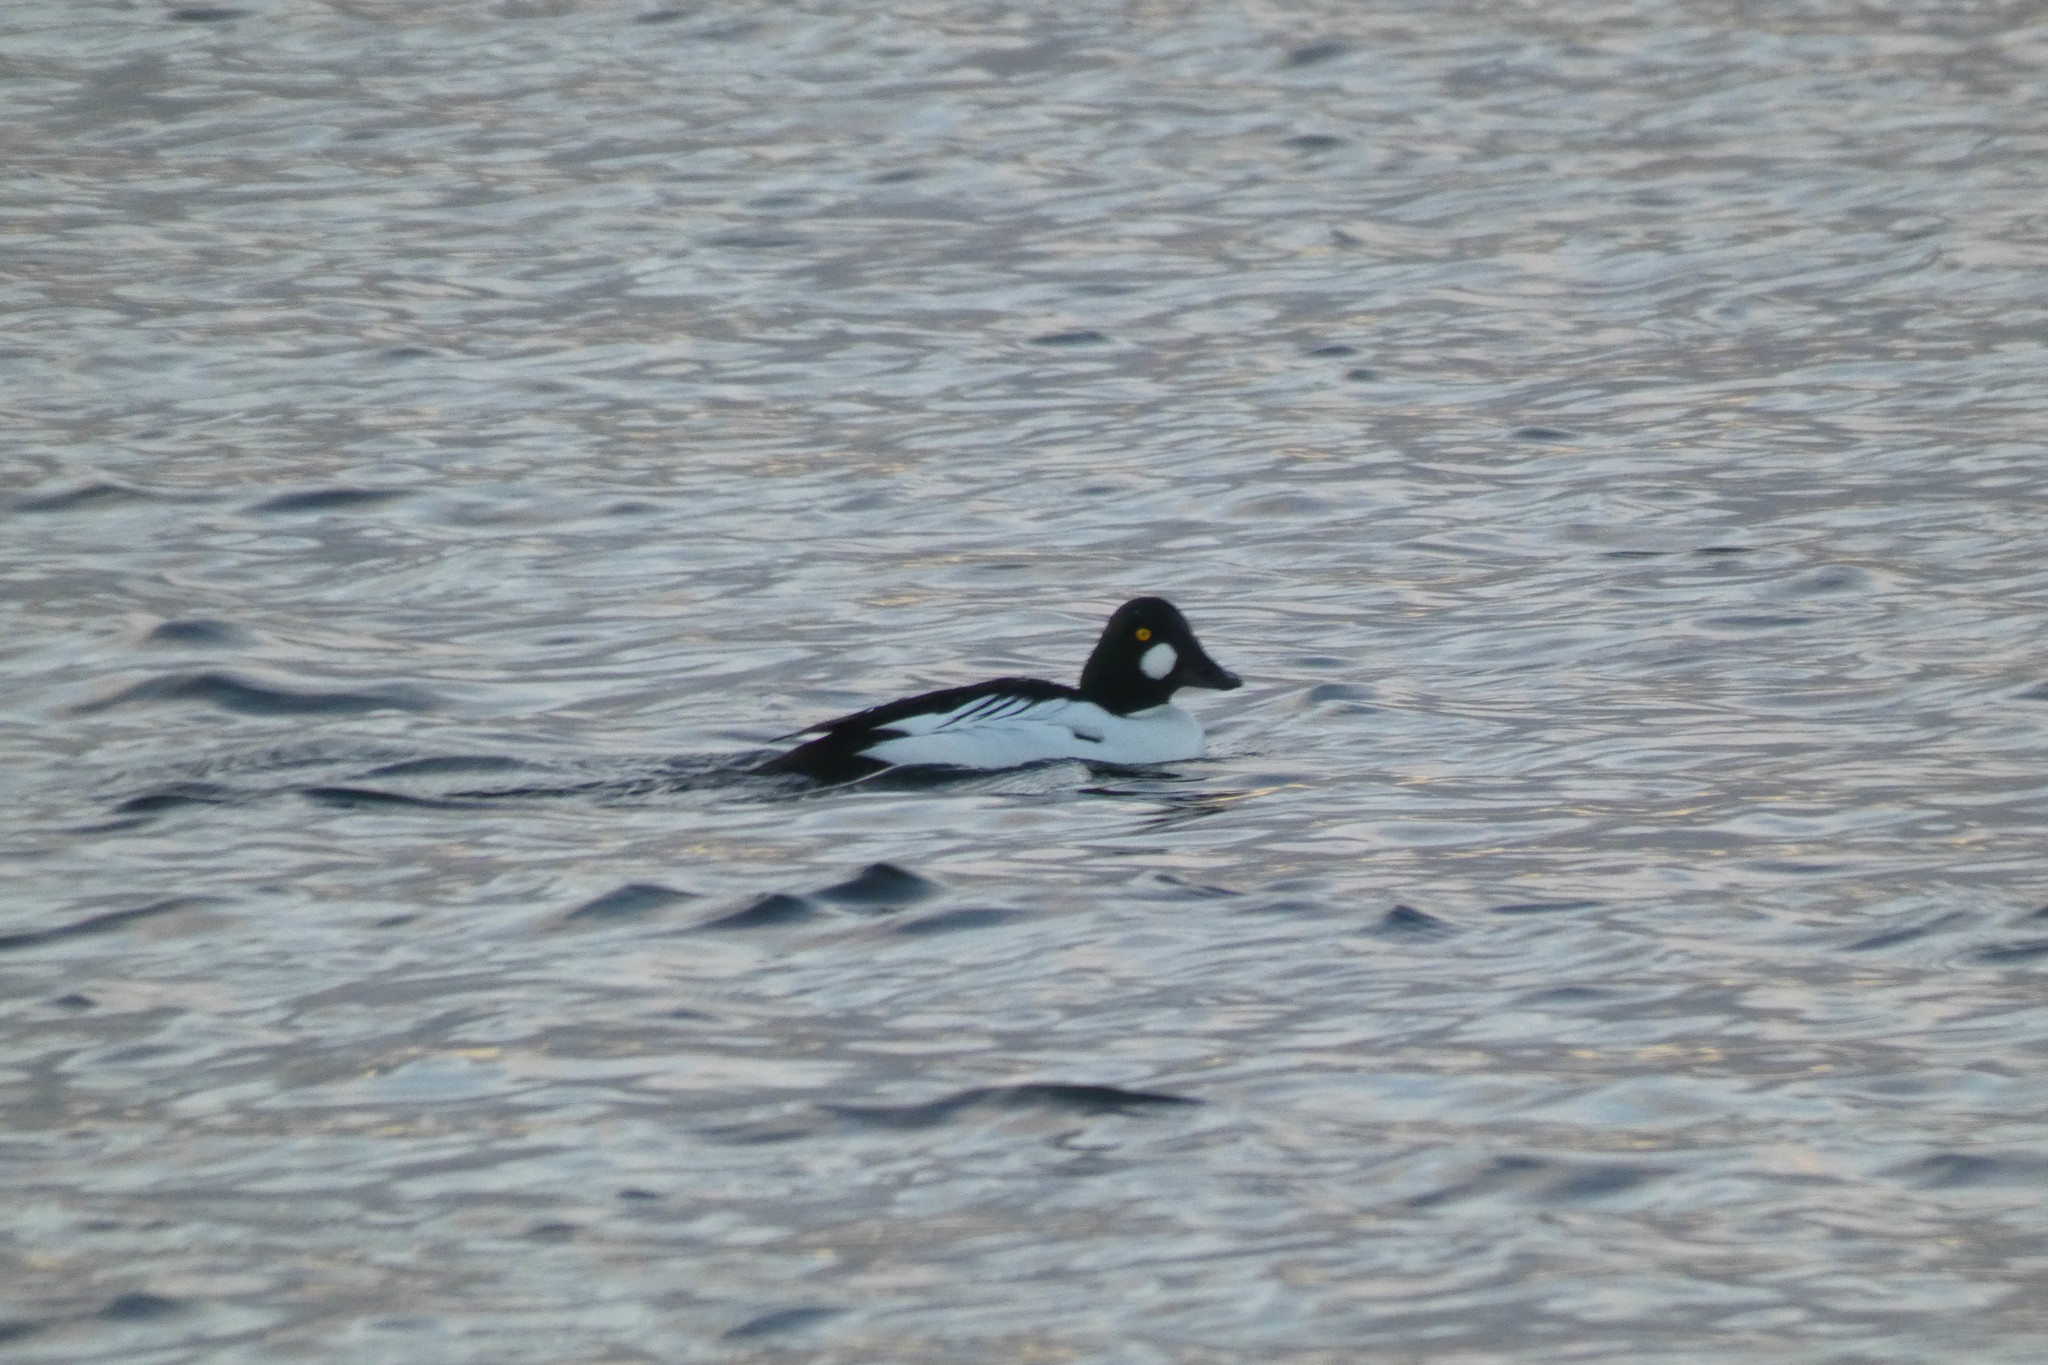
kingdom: Animalia
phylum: Chordata
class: Aves
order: Anseriformes
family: Anatidae
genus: Bucephala
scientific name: Bucephala clangula
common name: Common goldeneye
